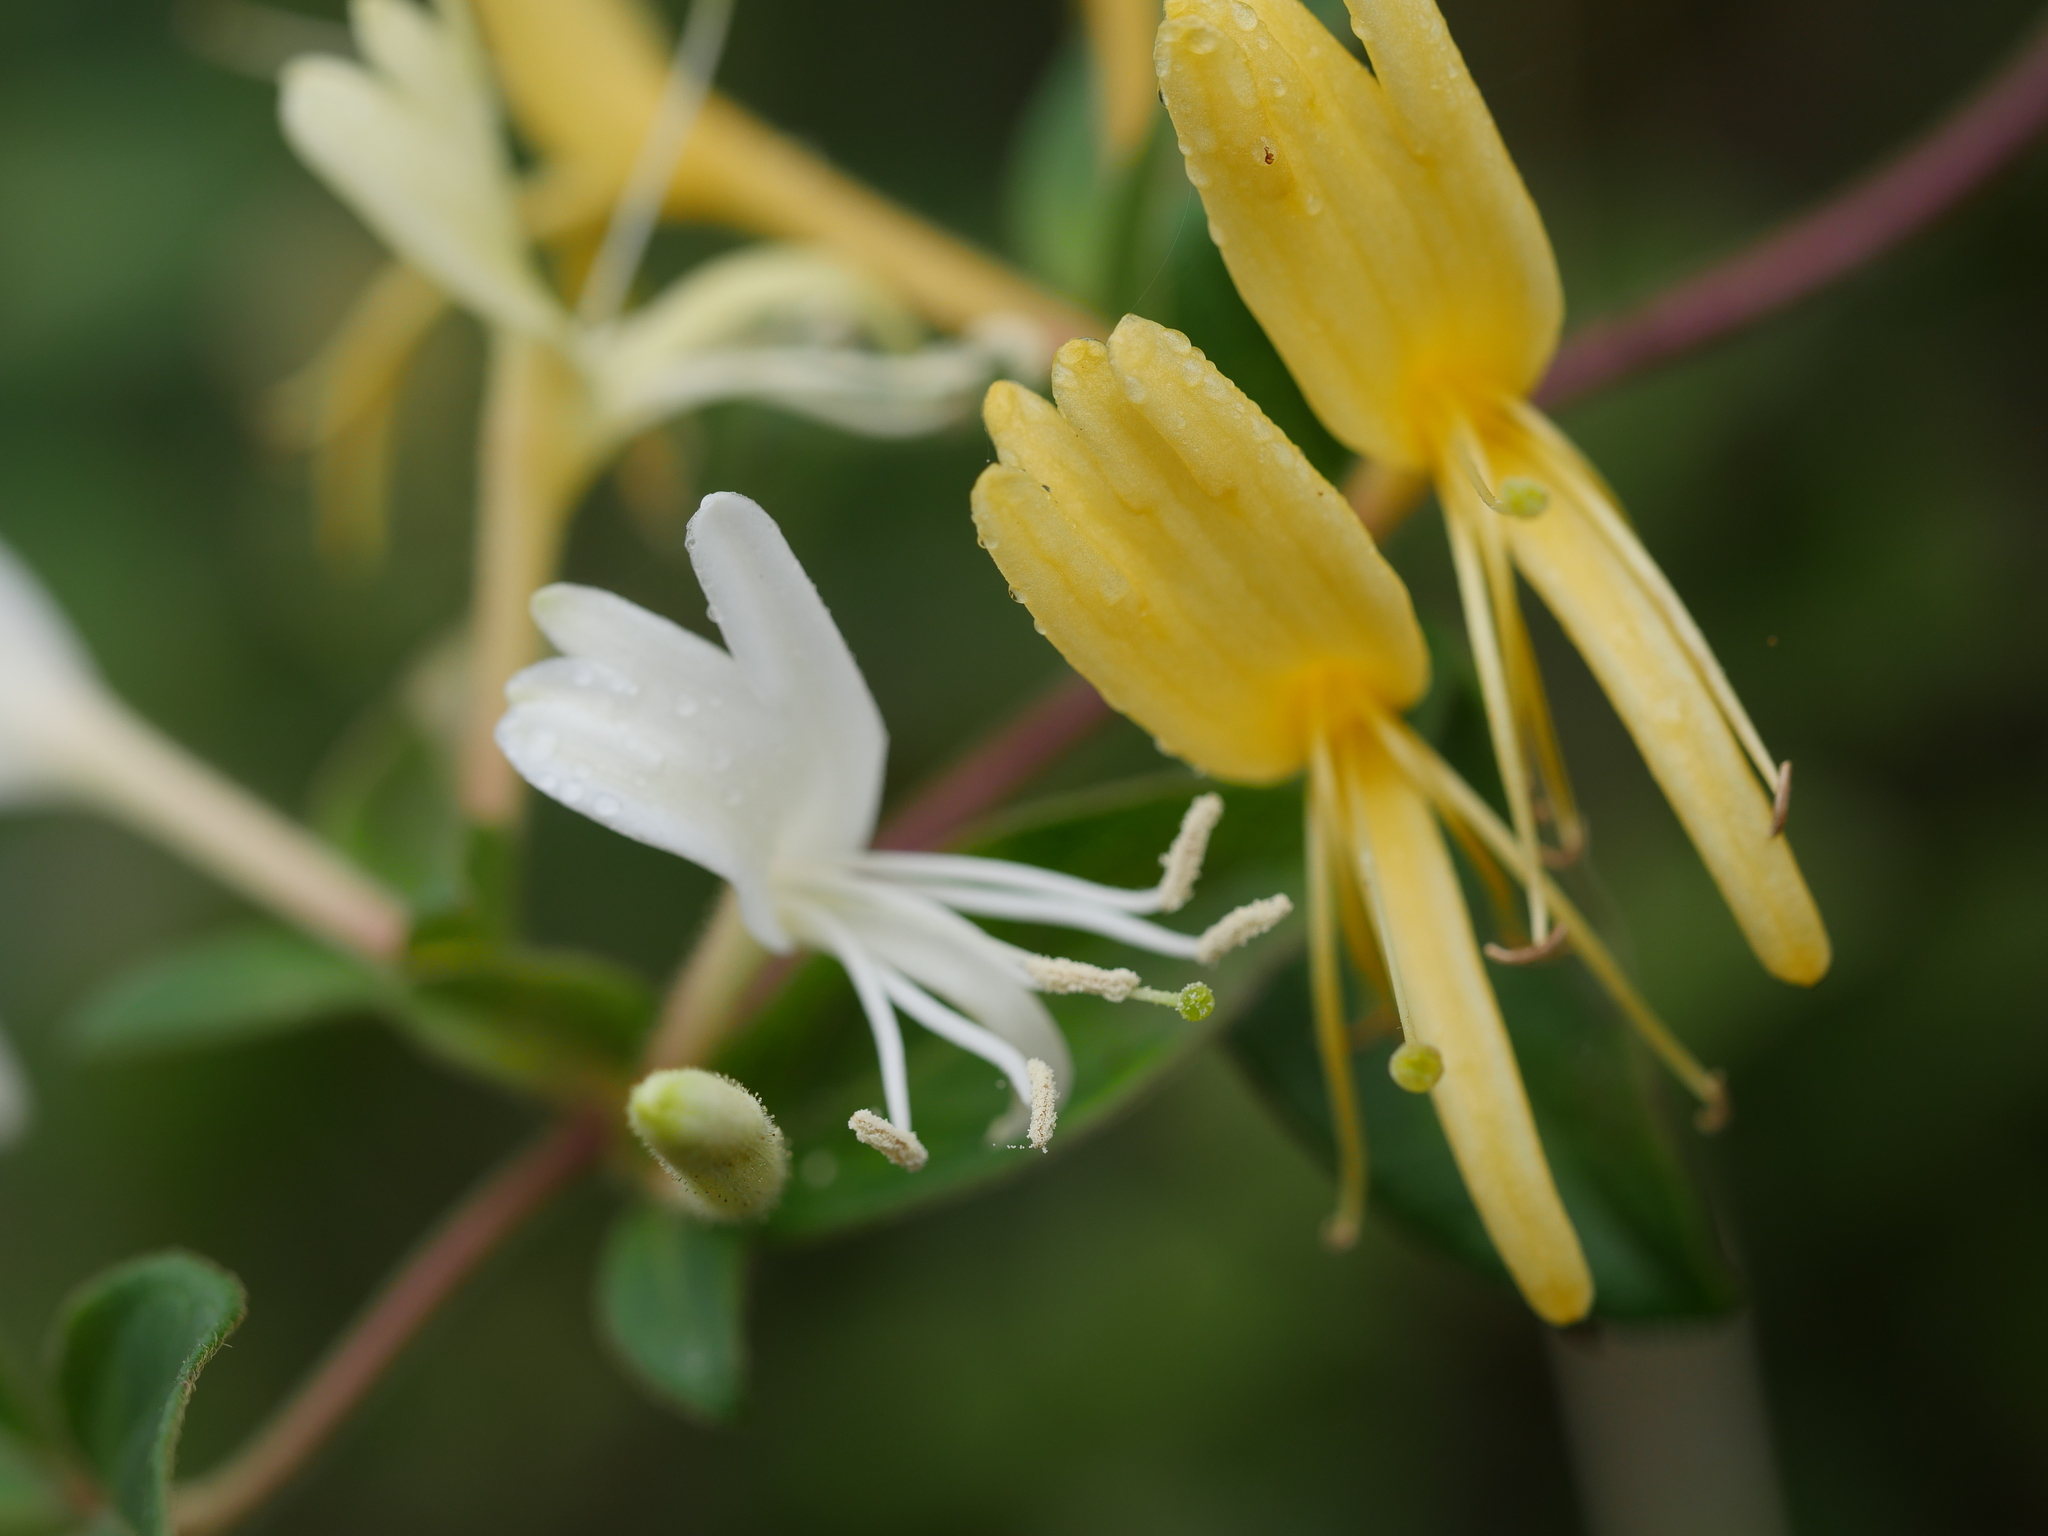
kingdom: Plantae
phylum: Tracheophyta
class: Magnoliopsida
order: Dipsacales
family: Caprifoliaceae
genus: Lonicera
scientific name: Lonicera japonica
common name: Japanese honeysuckle
